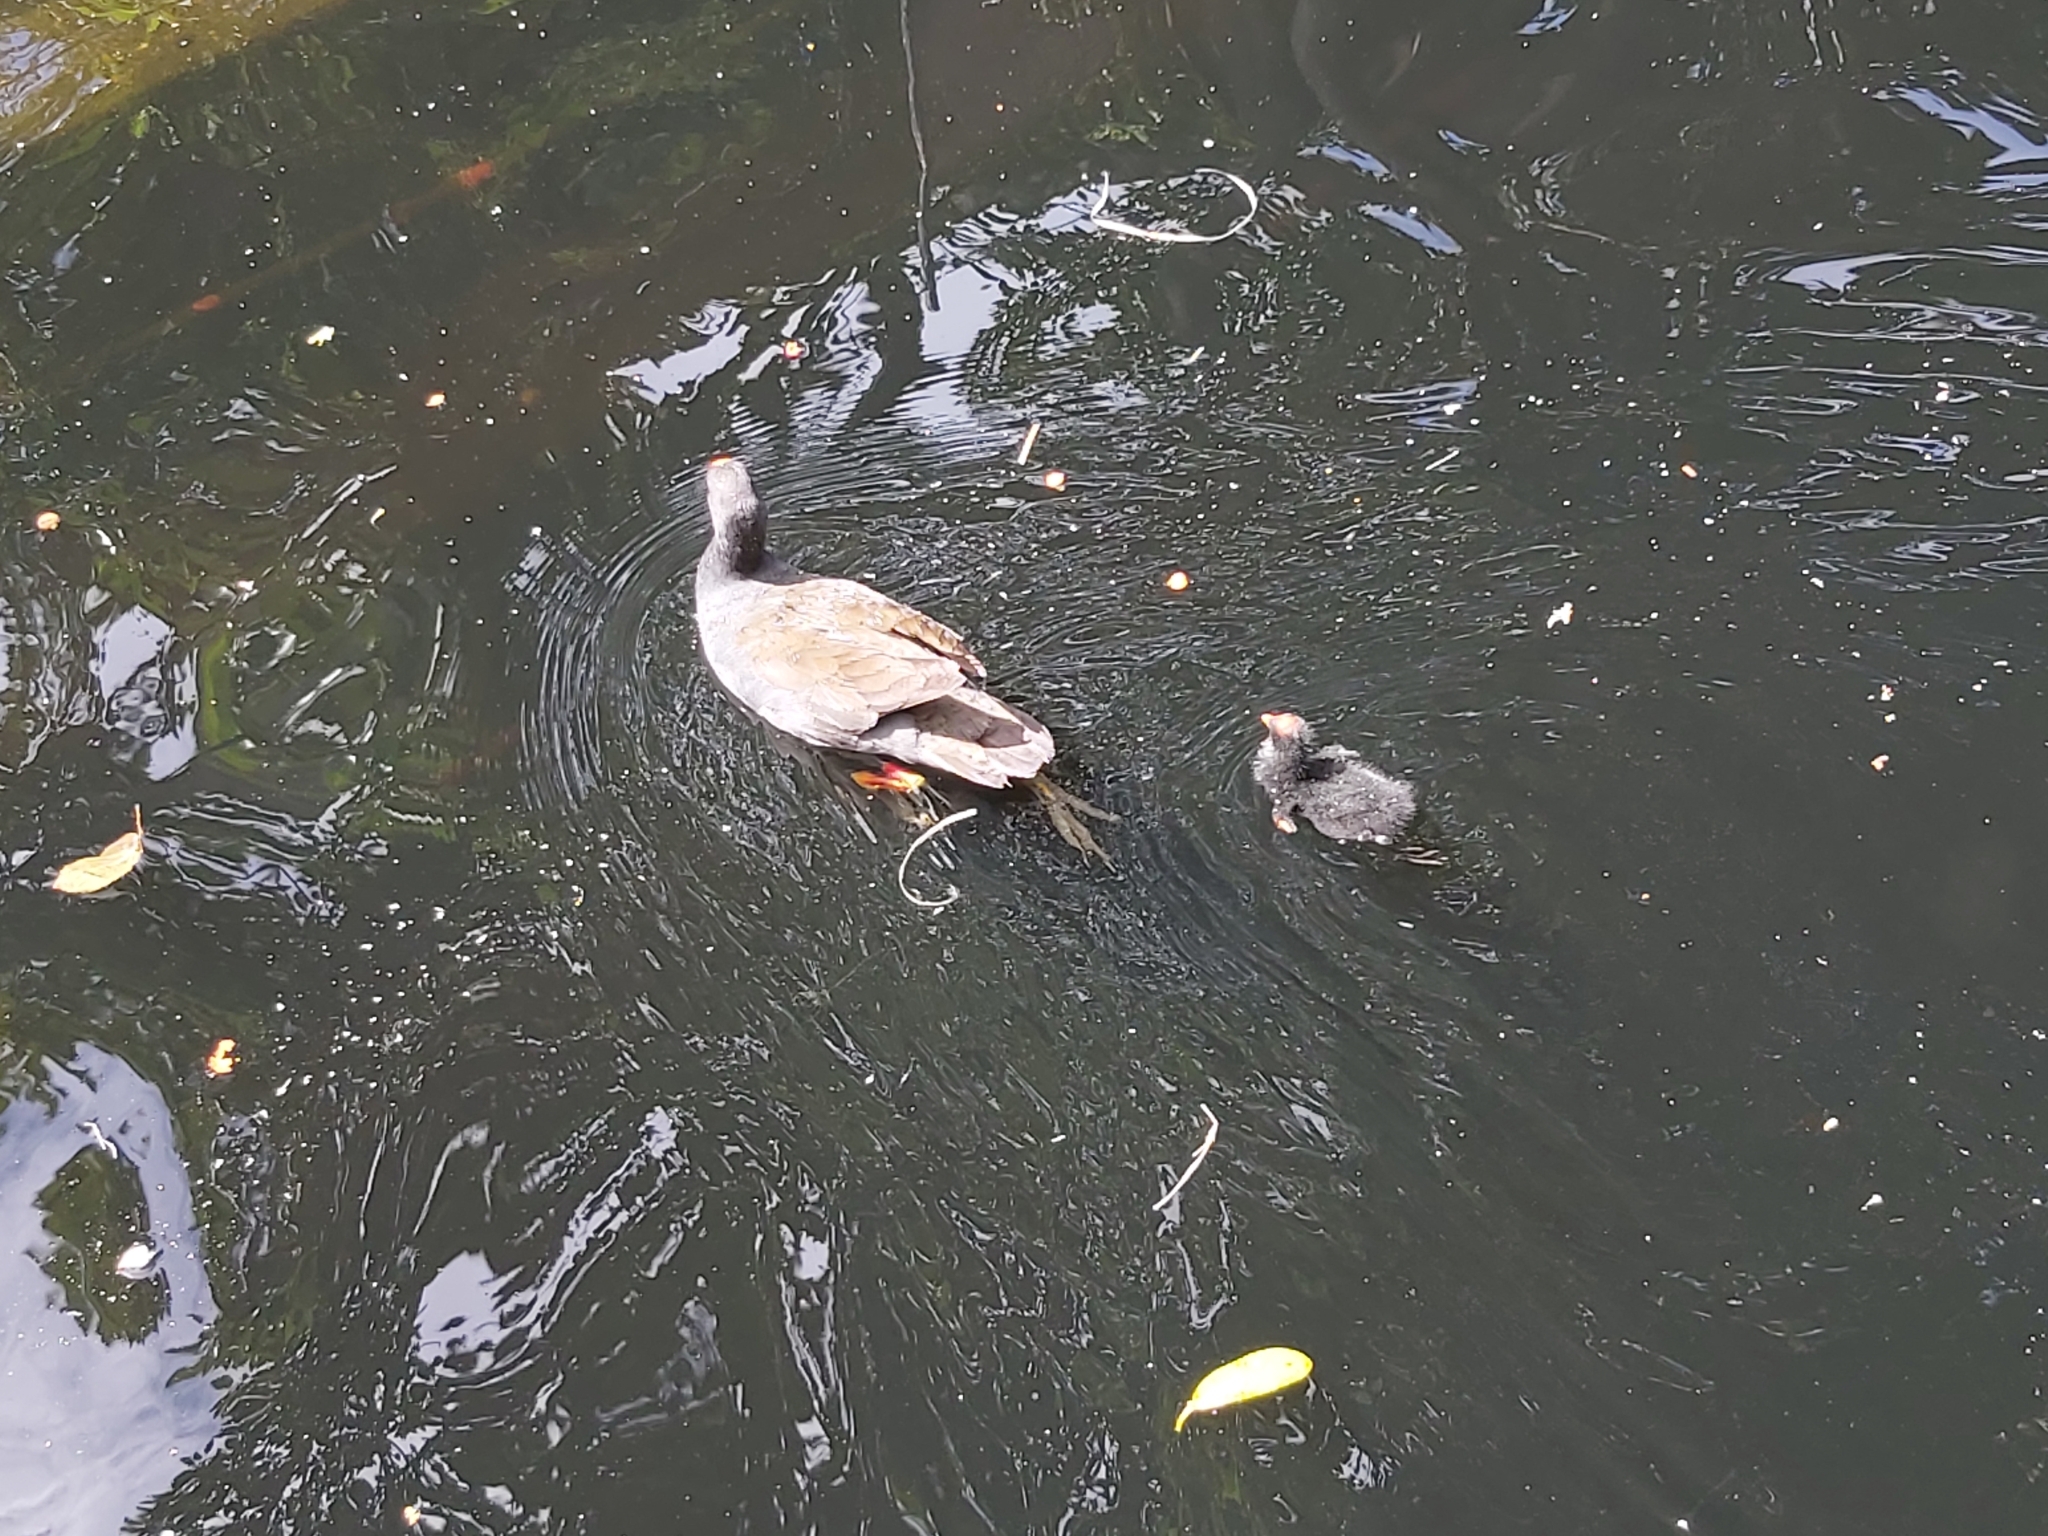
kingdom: Animalia
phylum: Chordata
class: Aves
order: Gruiformes
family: Rallidae
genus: Gallinula
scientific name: Gallinula tenebrosa
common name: Dusky moorhen
